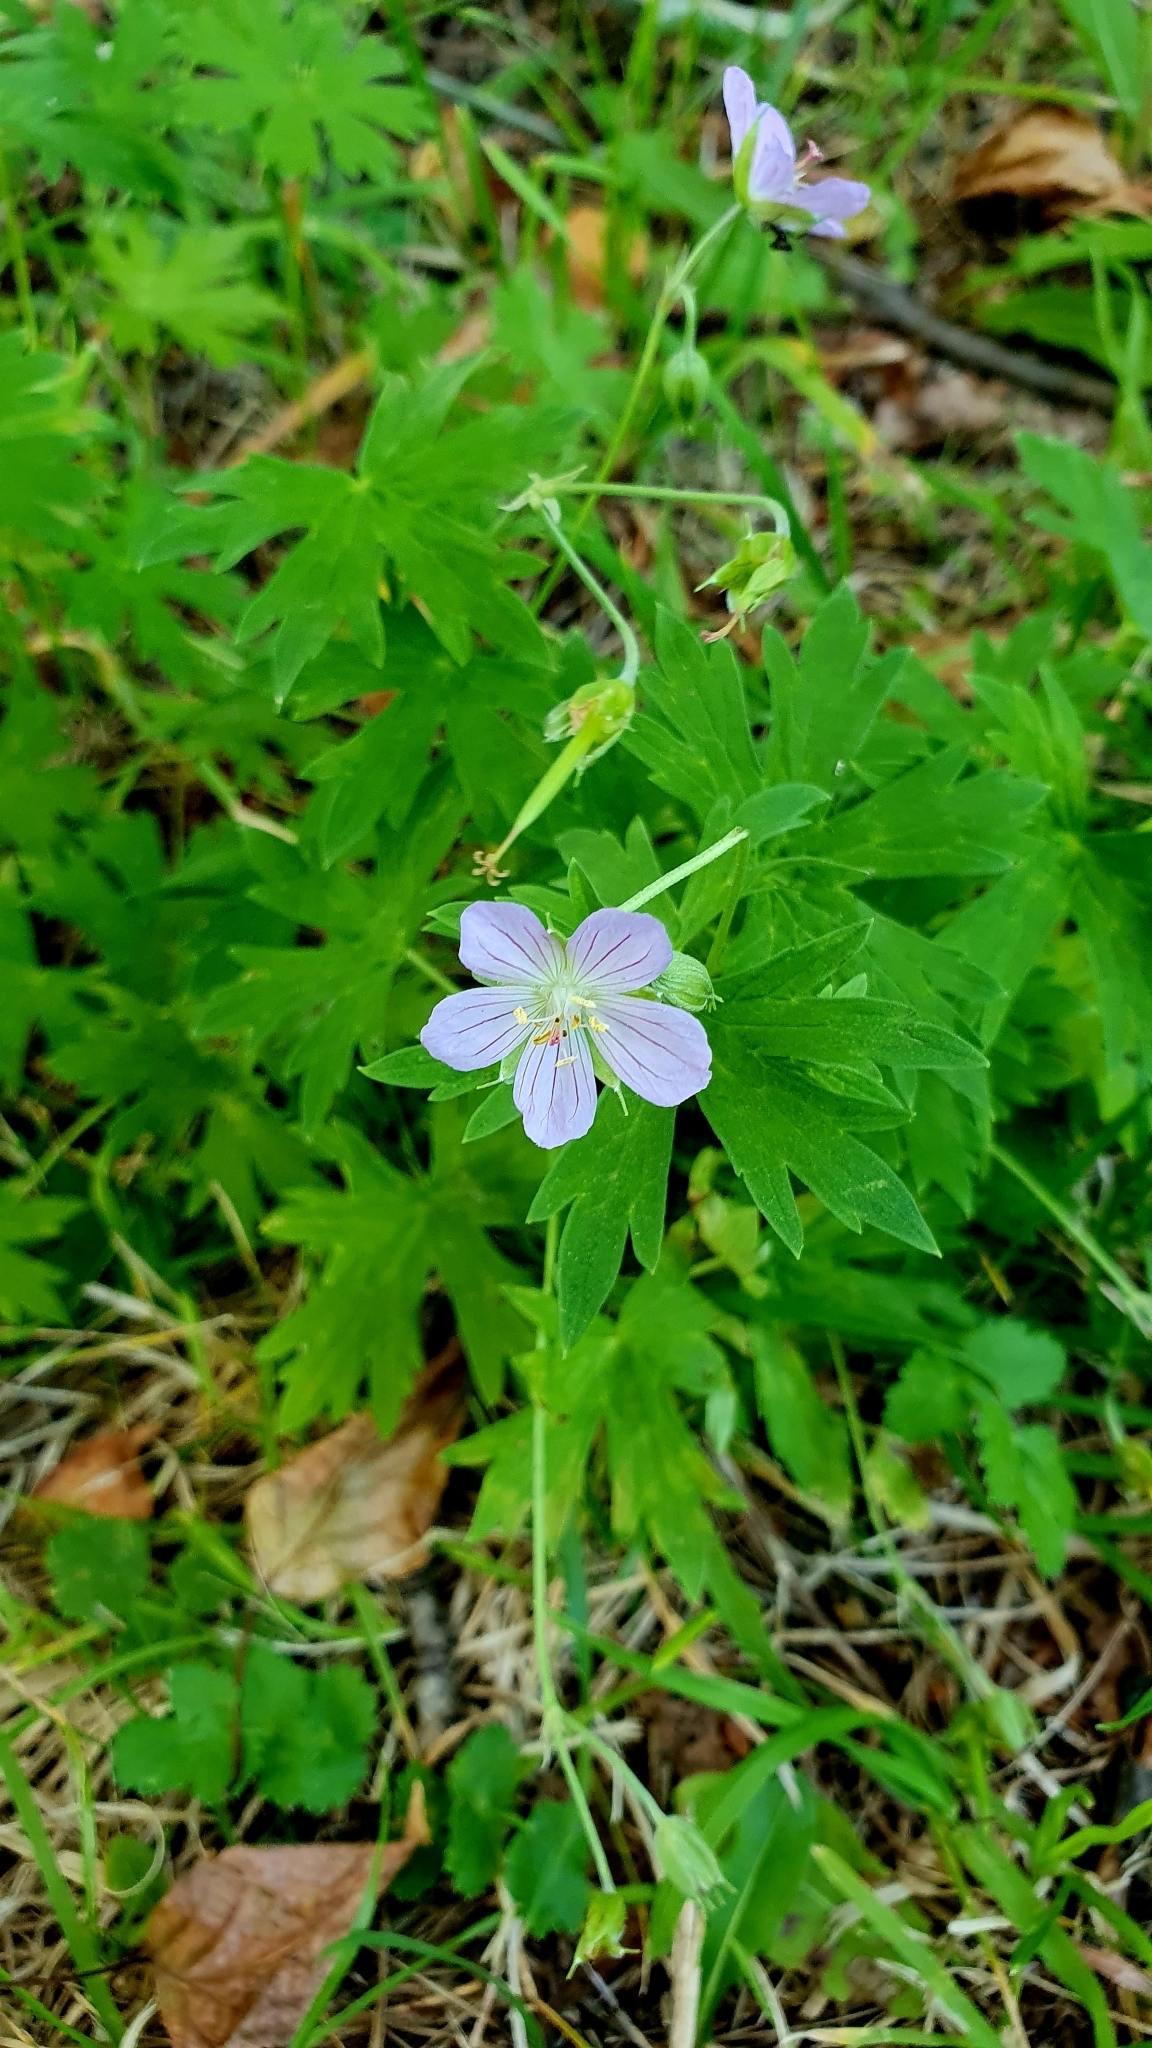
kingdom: Plantae
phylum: Tracheophyta
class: Magnoliopsida
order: Geraniales
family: Geraniaceae
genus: Geranium
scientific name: Geranium collinum
